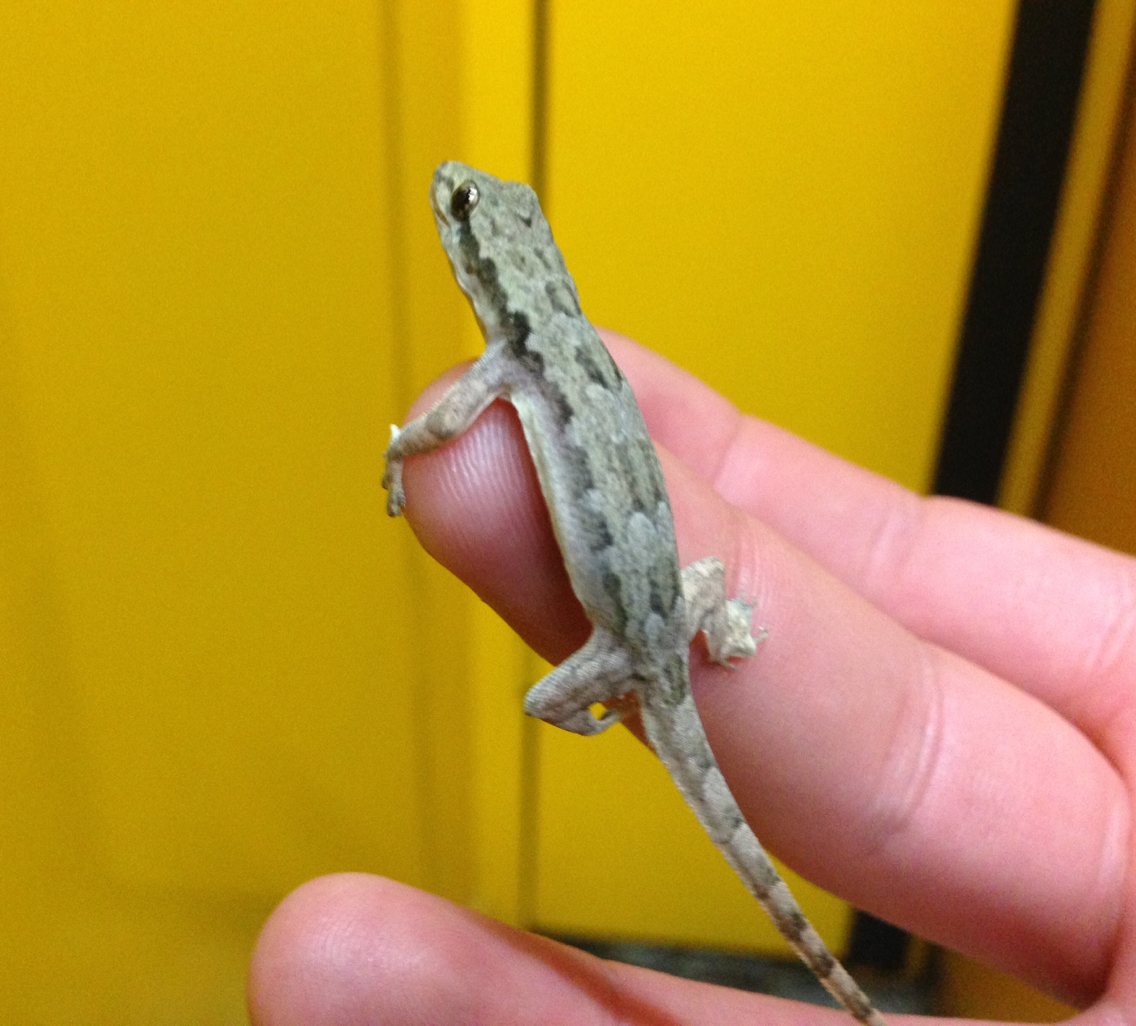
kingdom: Animalia
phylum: Chordata
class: Squamata
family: Gekkonidae
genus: Hemidactylus
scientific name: Hemidactylus platyurus
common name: Flat-tailed house gecko
